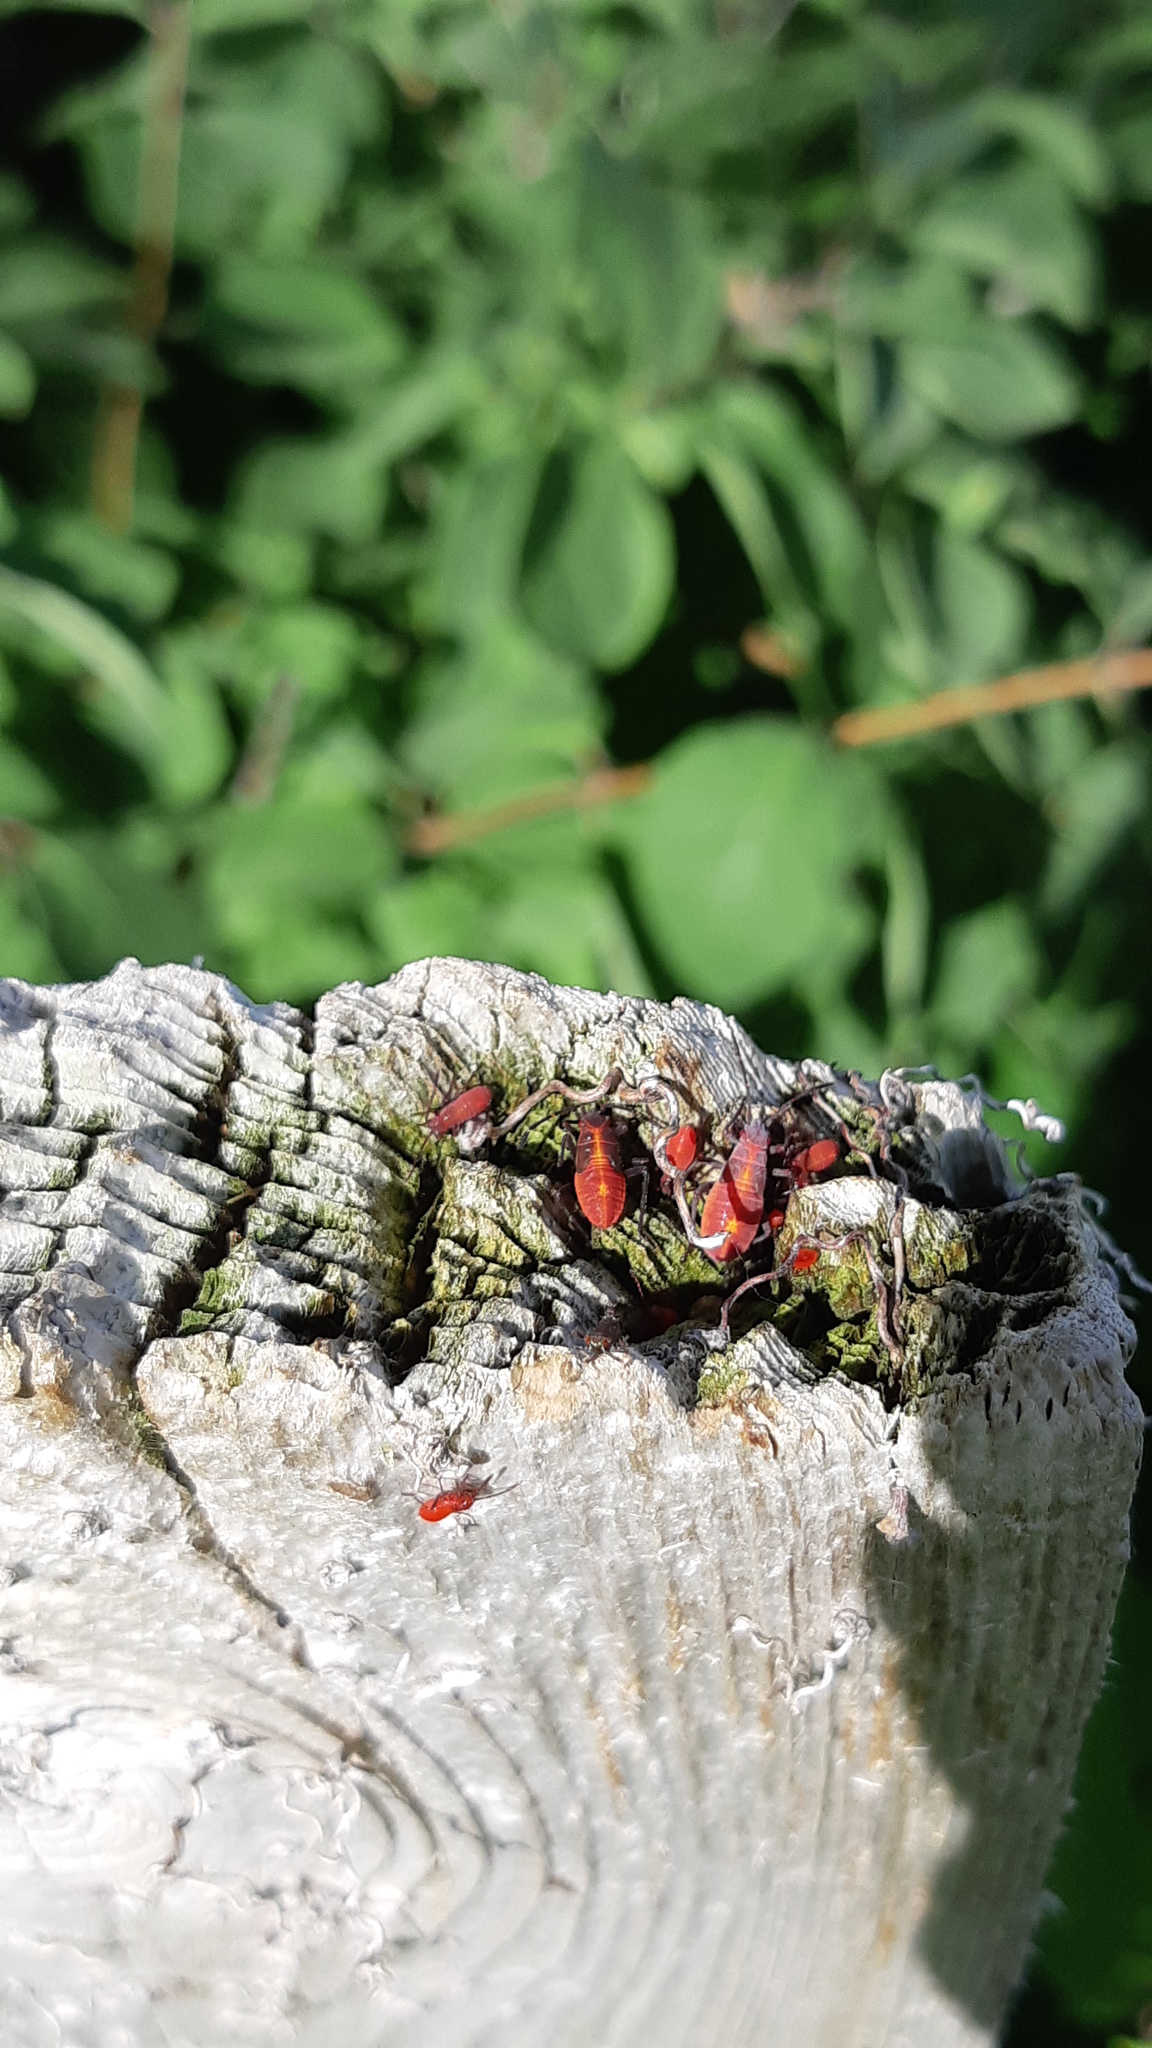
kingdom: Animalia
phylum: Arthropoda
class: Insecta
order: Hemiptera
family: Rhopalidae
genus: Boisea
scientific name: Boisea trivittata
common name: Boxelder bug
